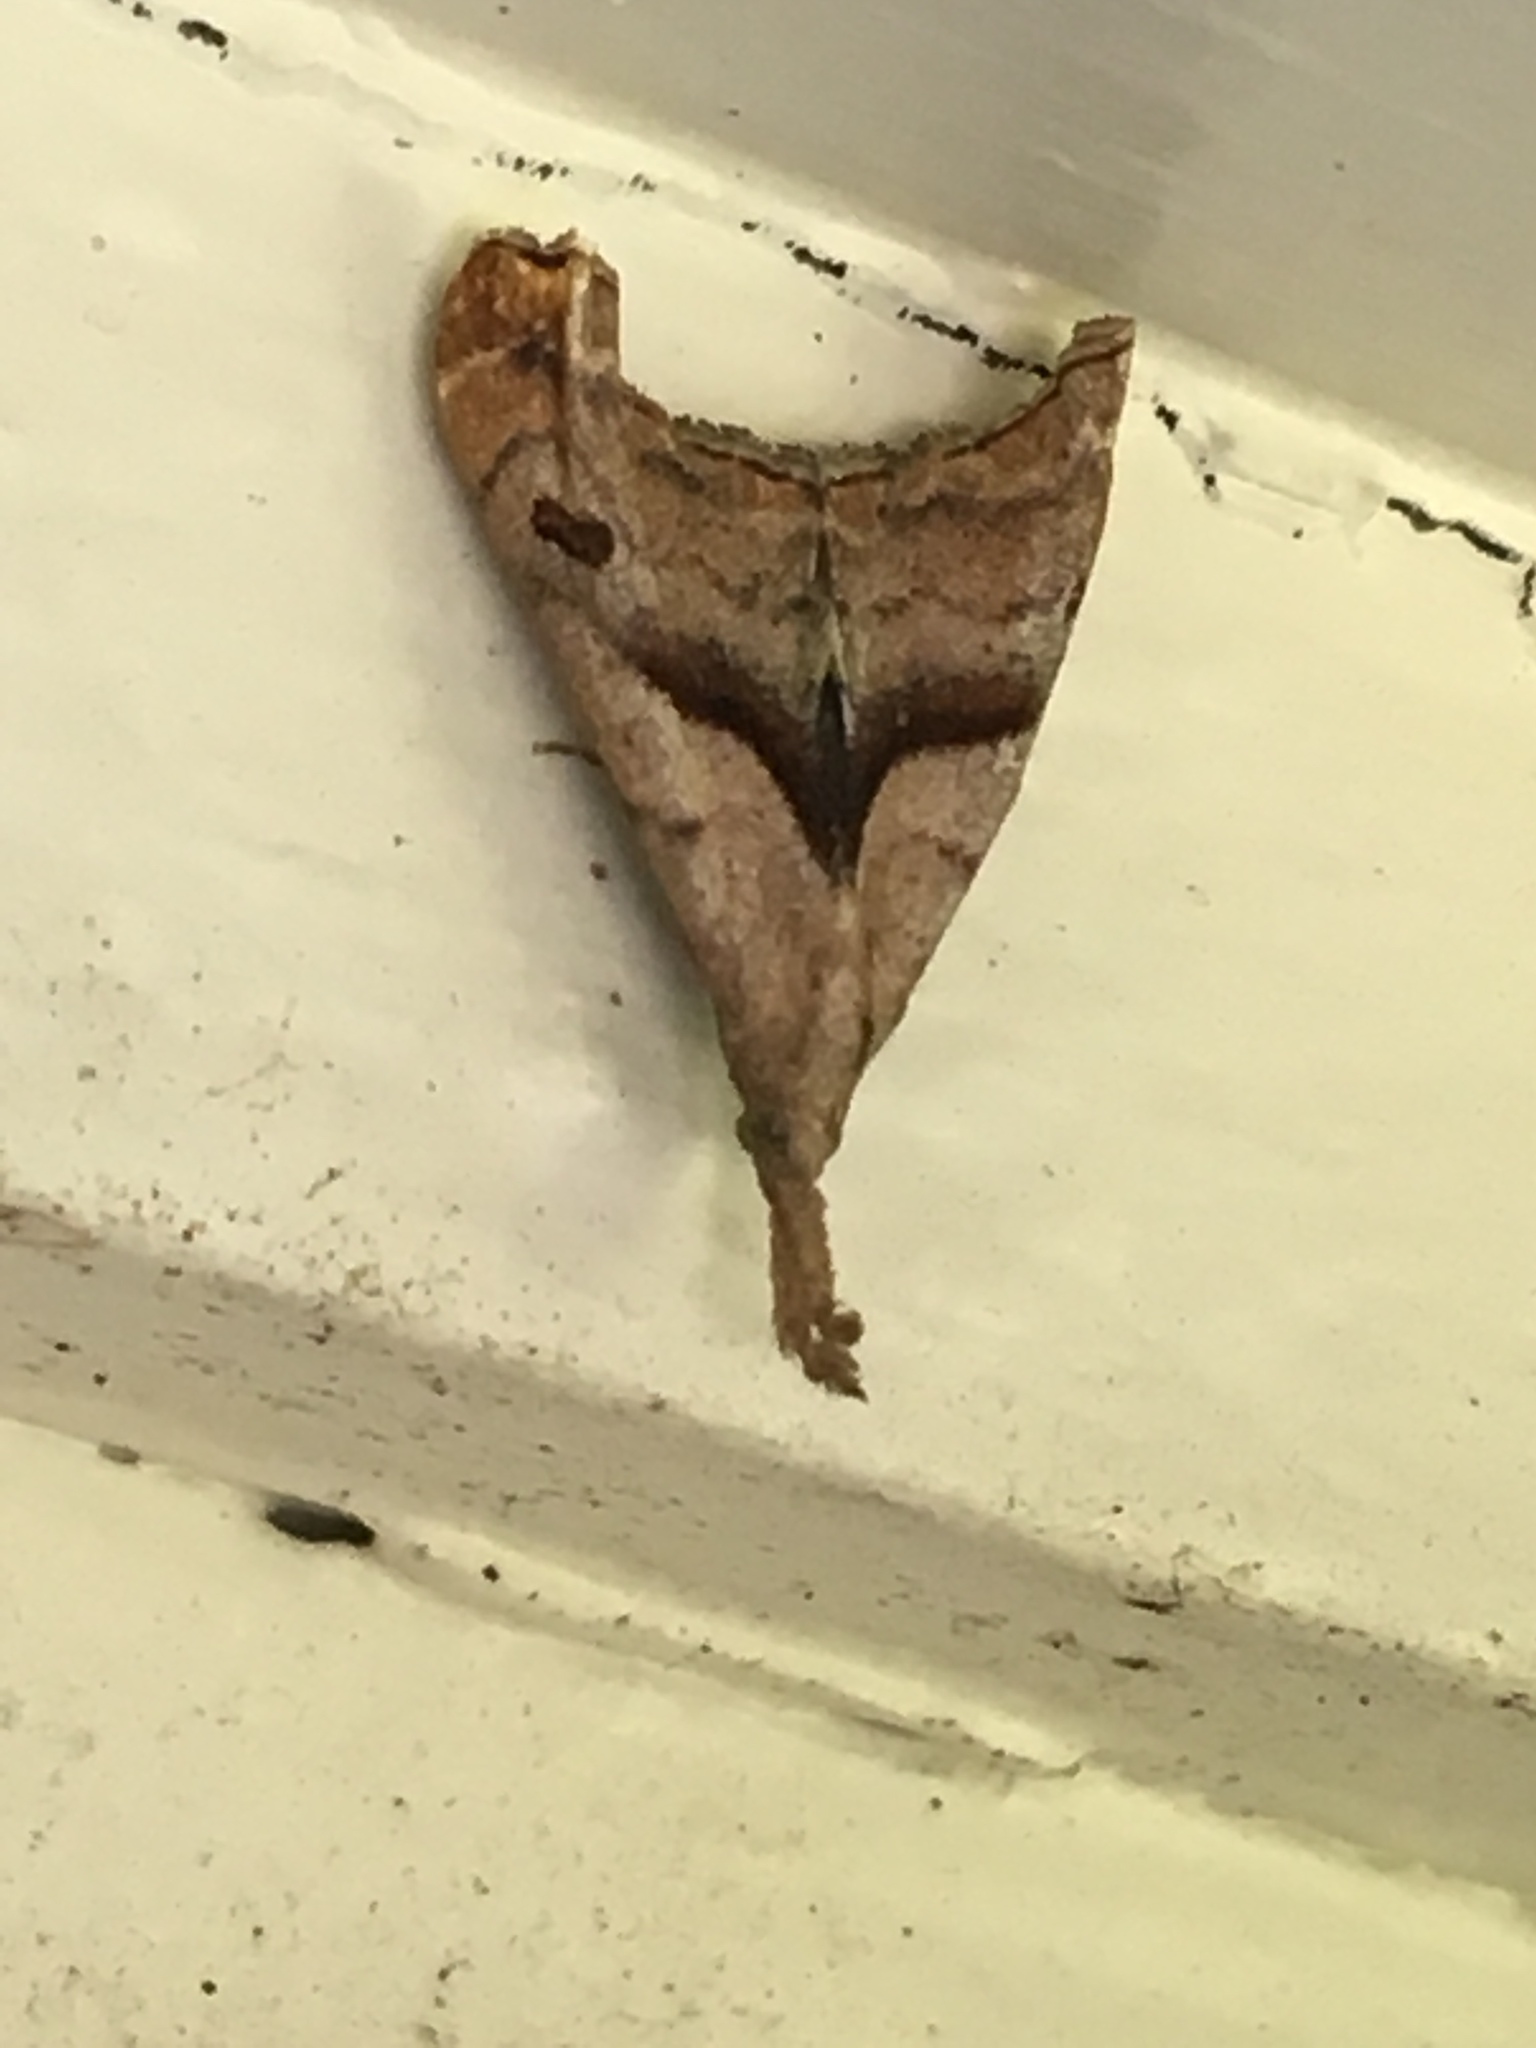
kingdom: Animalia
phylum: Arthropoda
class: Insecta
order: Lepidoptera
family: Erebidae
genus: Palthis
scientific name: Palthis angulalis
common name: Dark-spotted palthis moth
